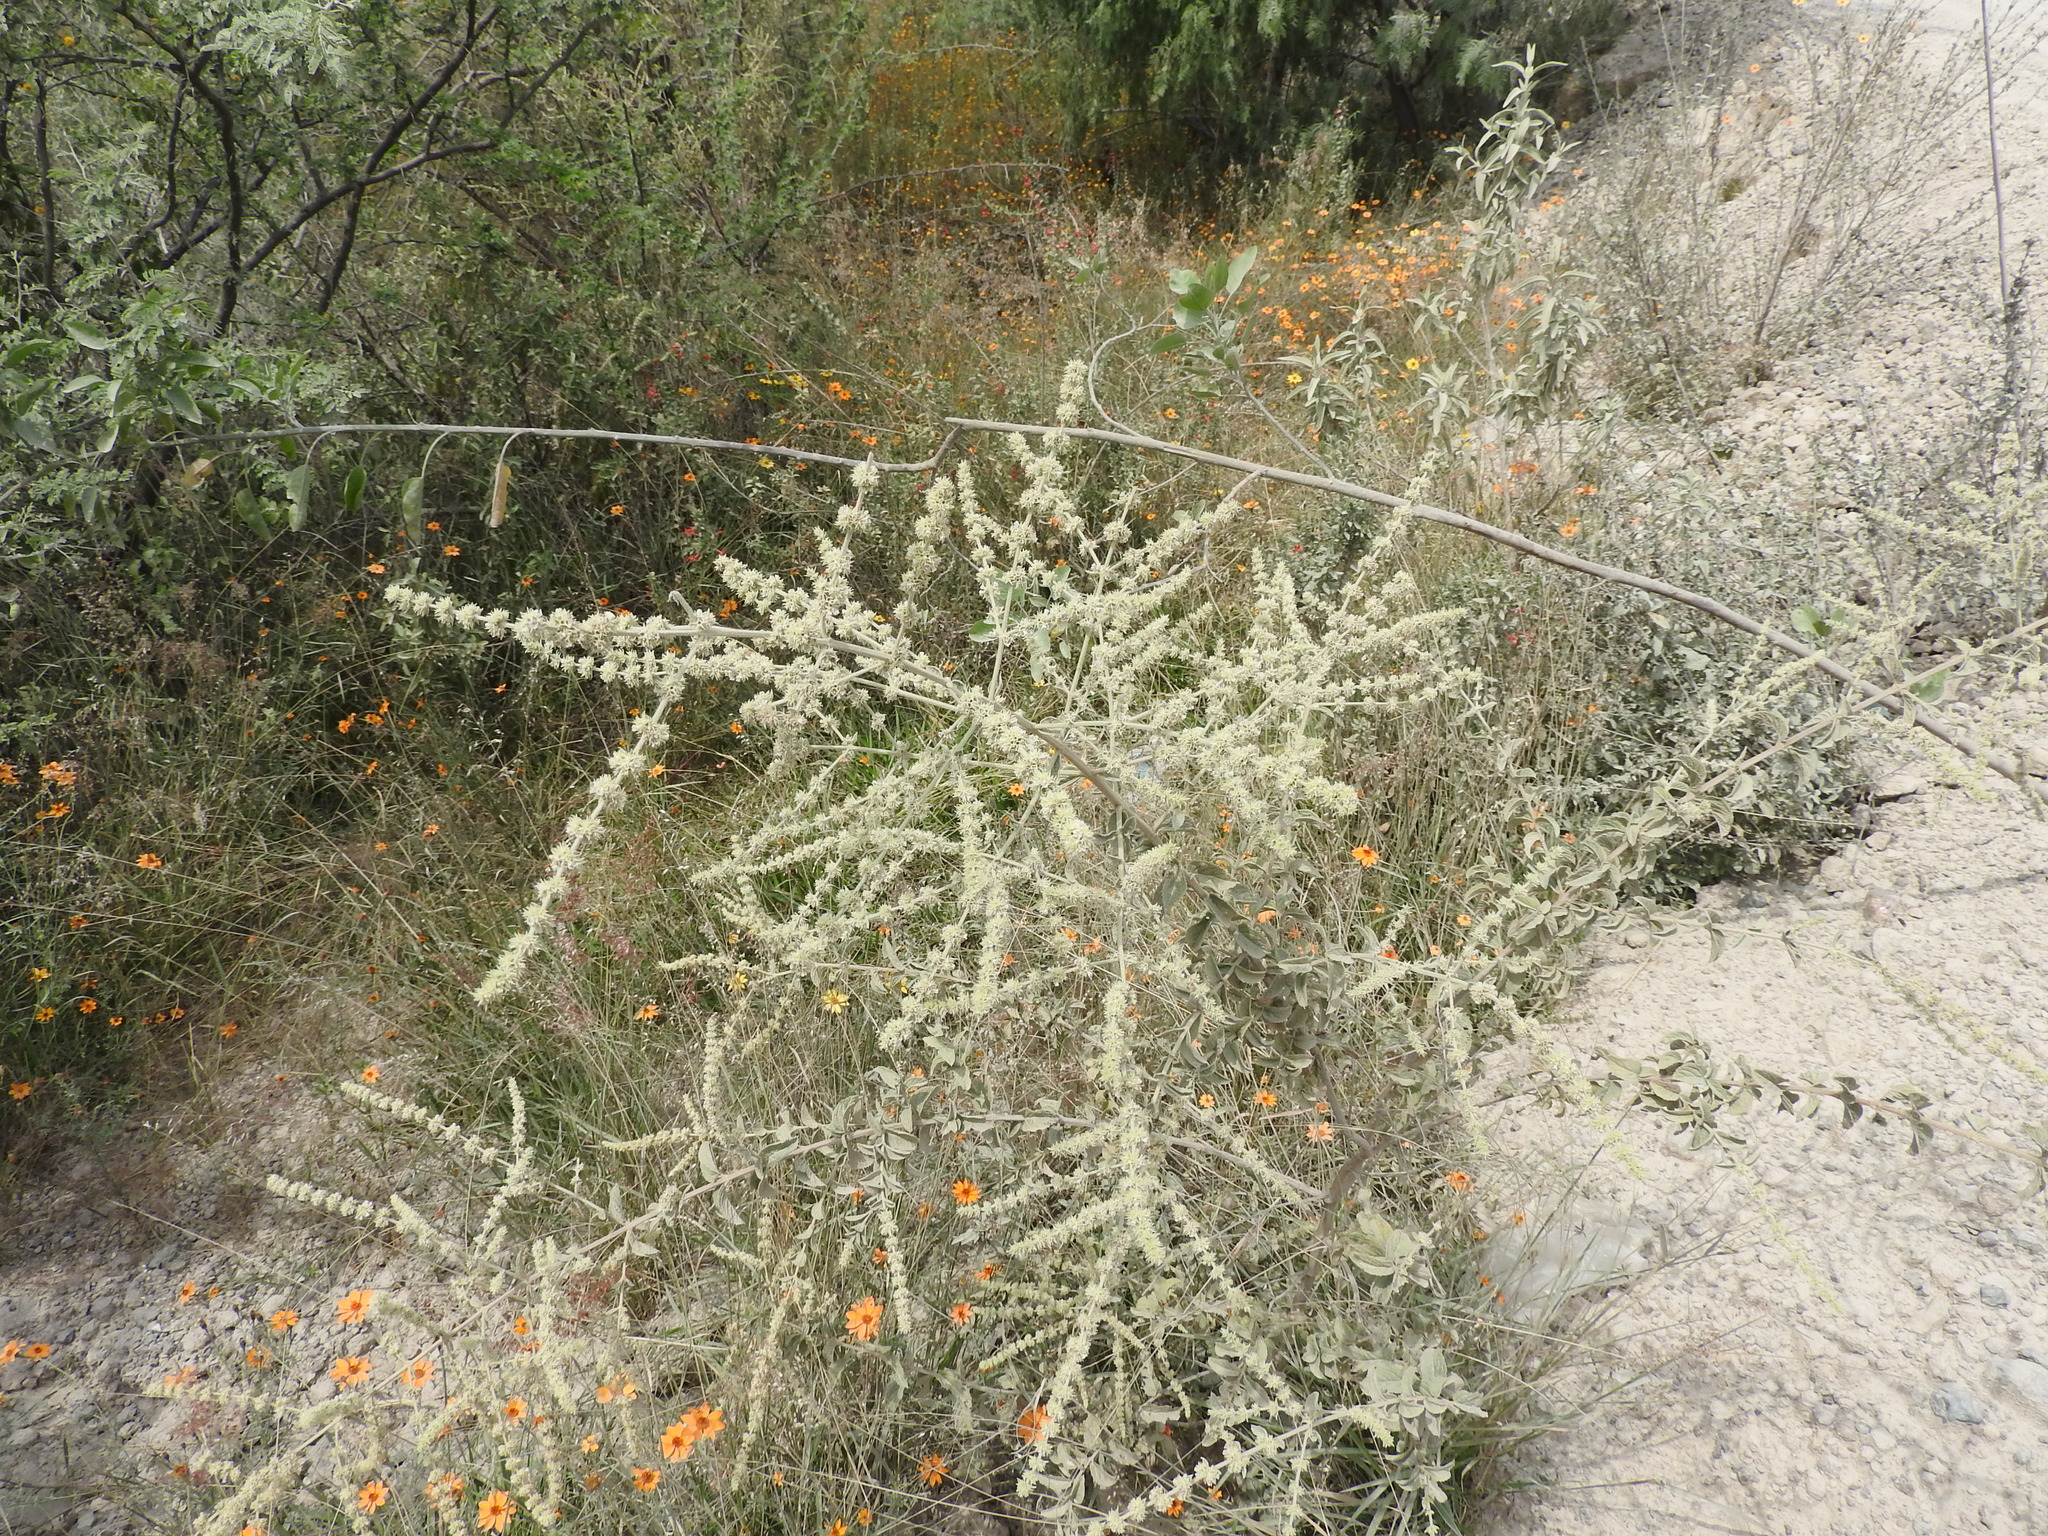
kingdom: Plantae
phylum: Tracheophyta
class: Magnoliopsida
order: Lamiales
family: Lamiaceae
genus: Asterohyptis
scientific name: Asterohyptis stellulata
